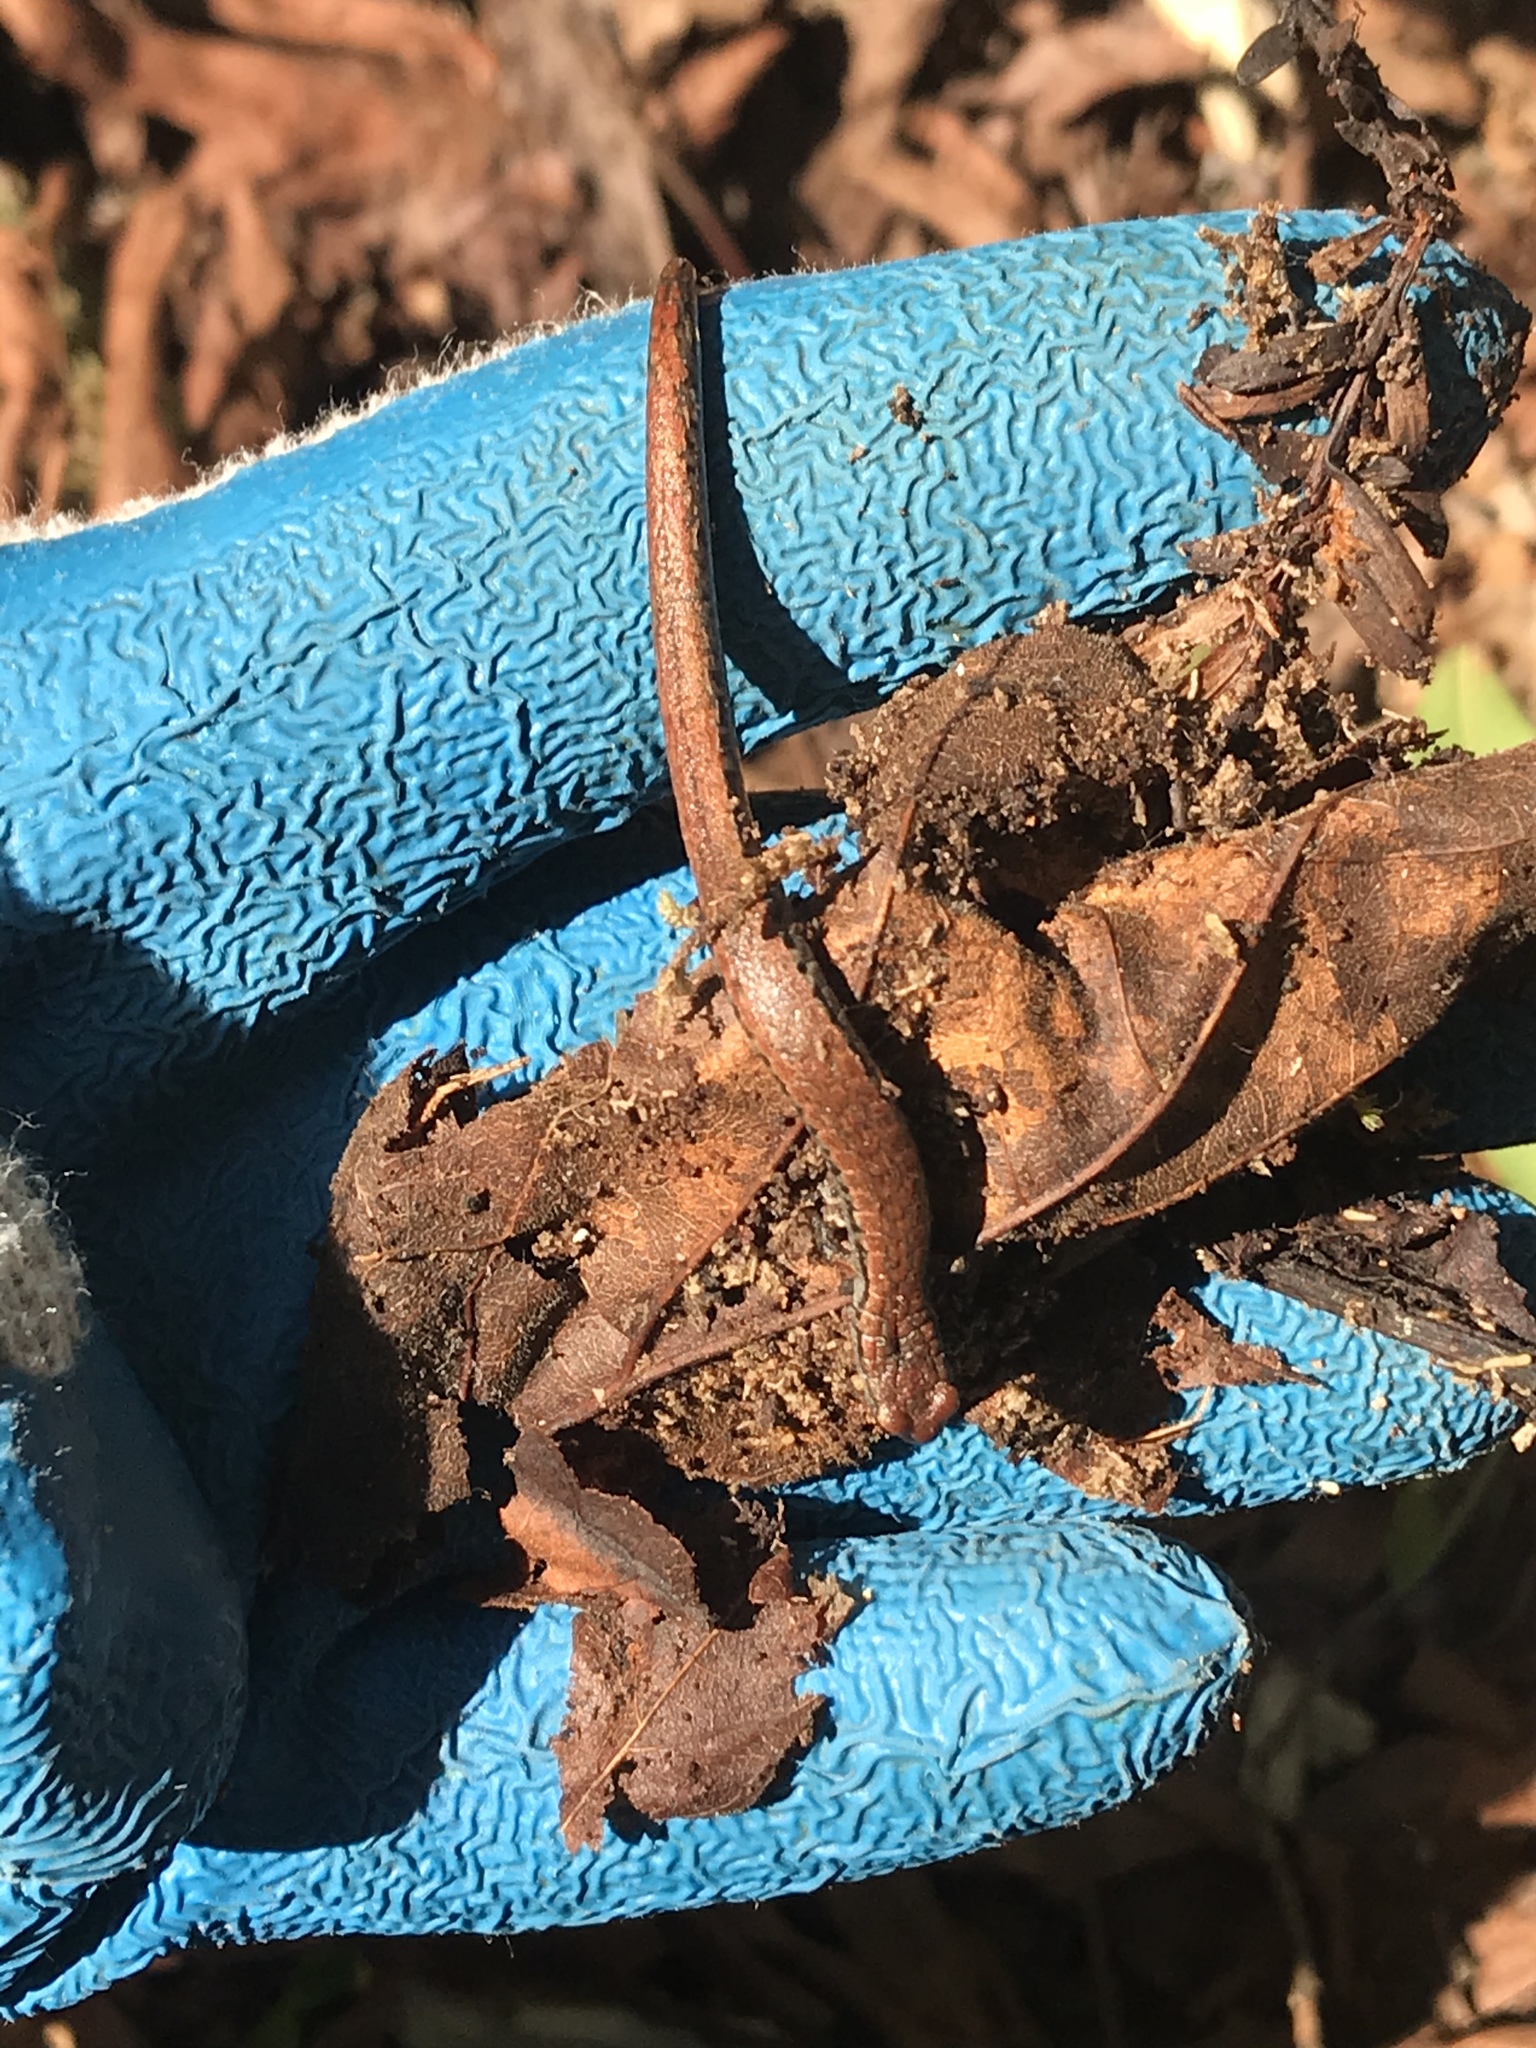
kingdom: Animalia
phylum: Chordata
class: Amphibia
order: Caudata
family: Plethodontidae
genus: Batrachoseps
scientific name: Batrachoseps attenuatus
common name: California slender salamander
